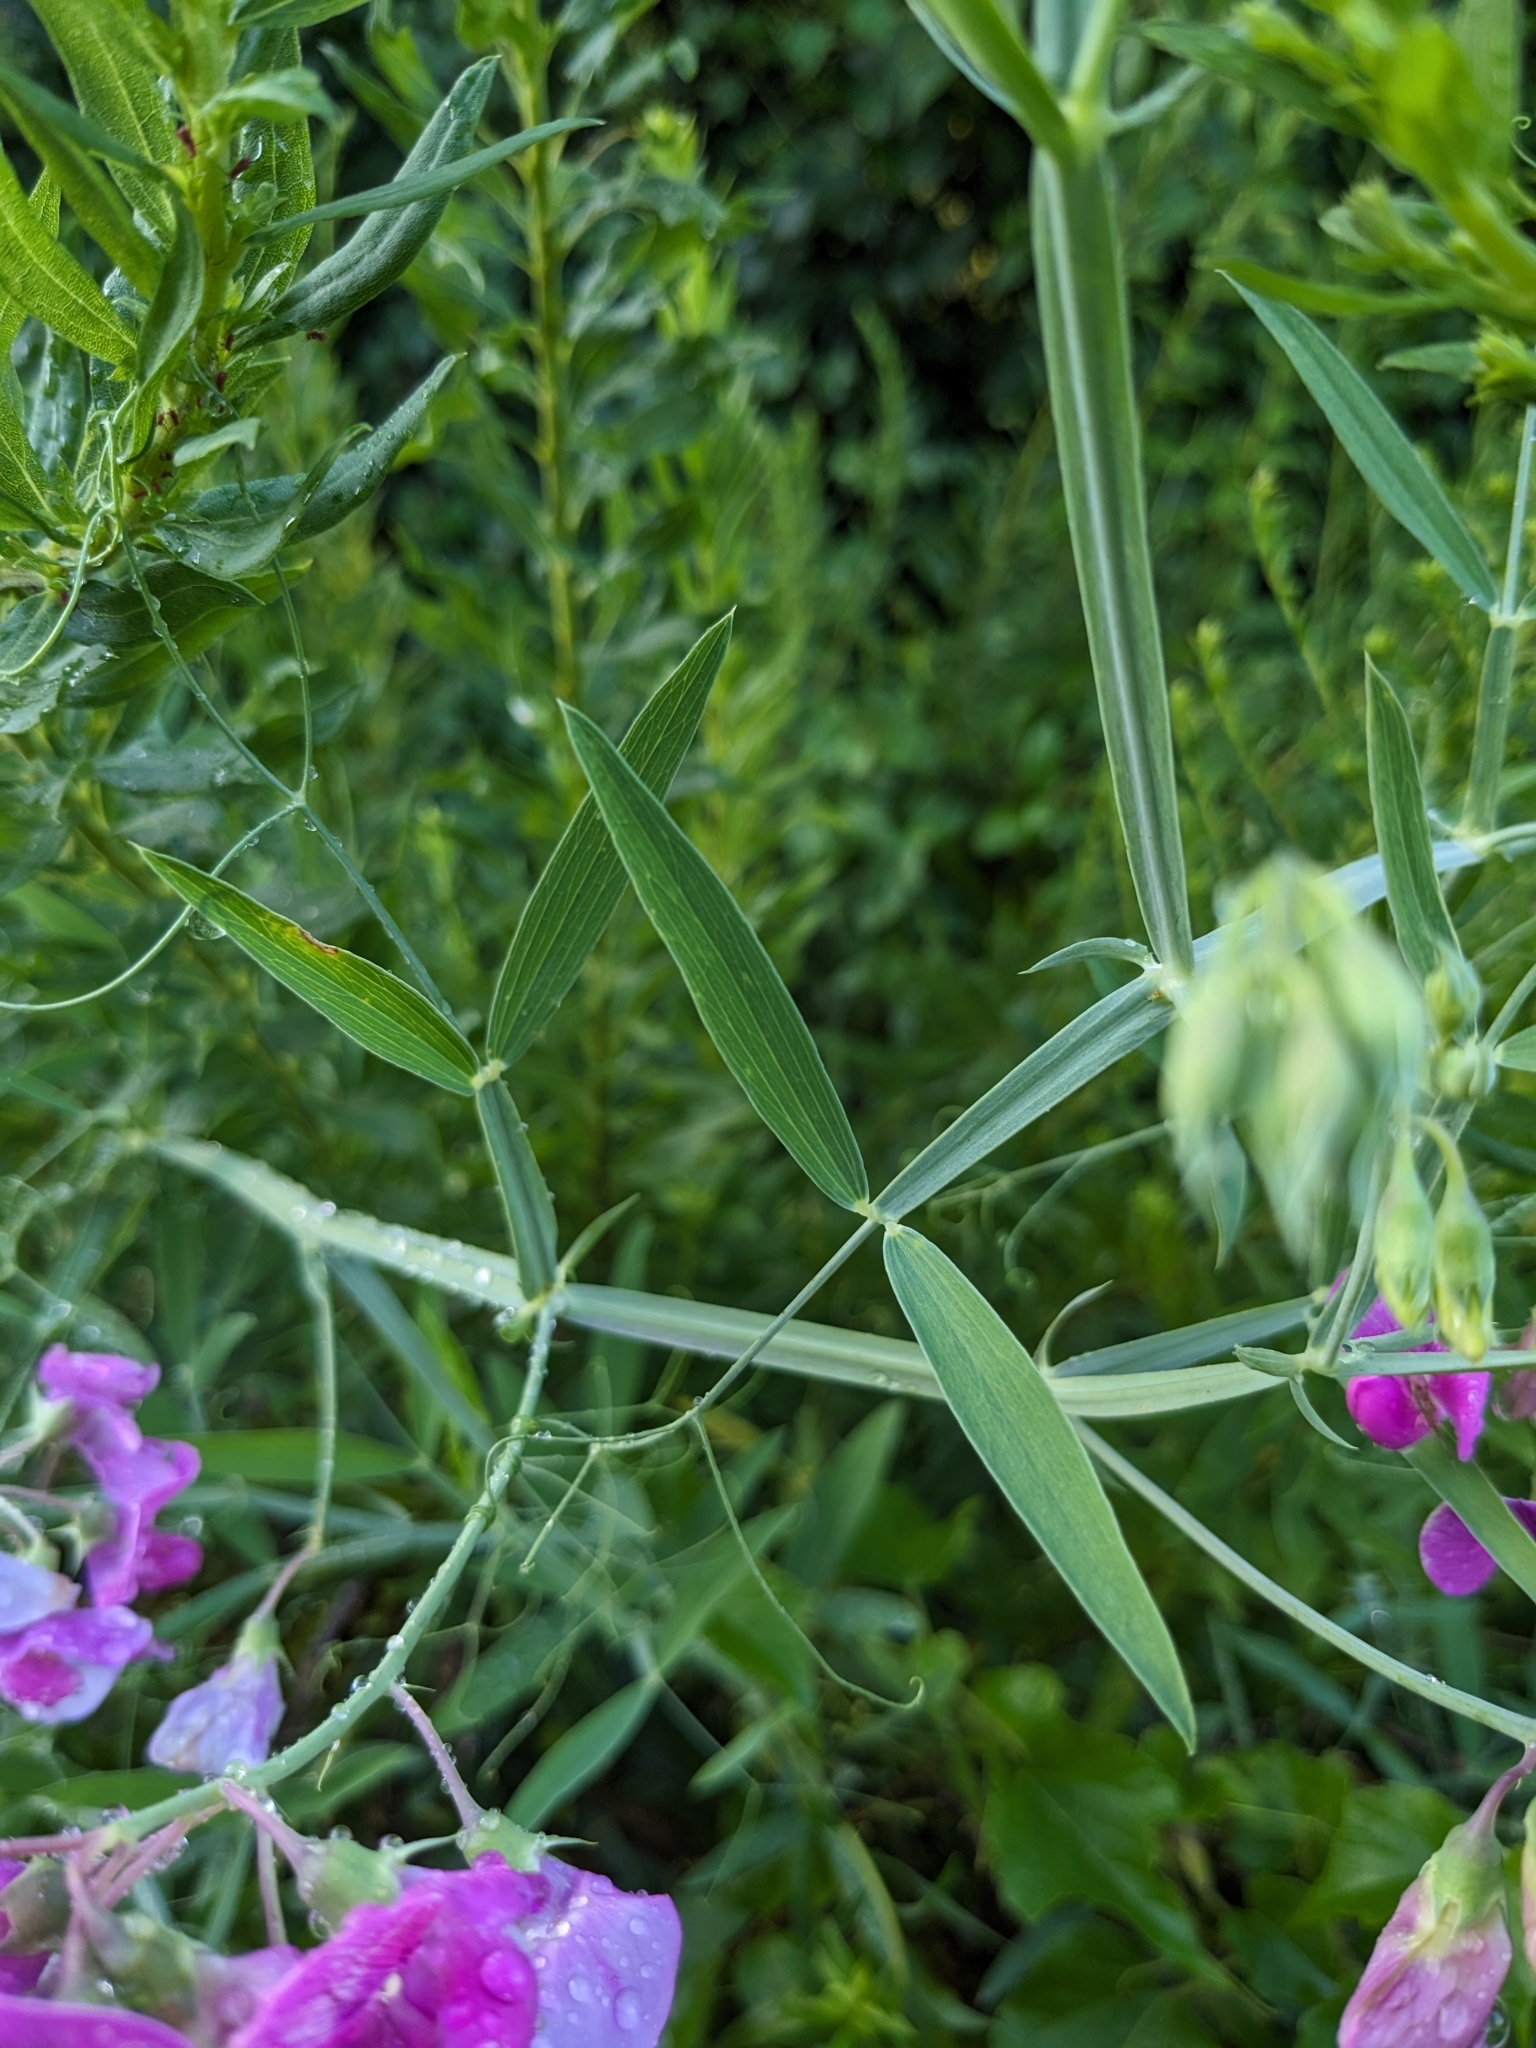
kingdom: Plantae
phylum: Tracheophyta
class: Magnoliopsida
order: Fabales
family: Fabaceae
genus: Lathyrus
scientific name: Lathyrus latifolius
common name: Perennial pea
